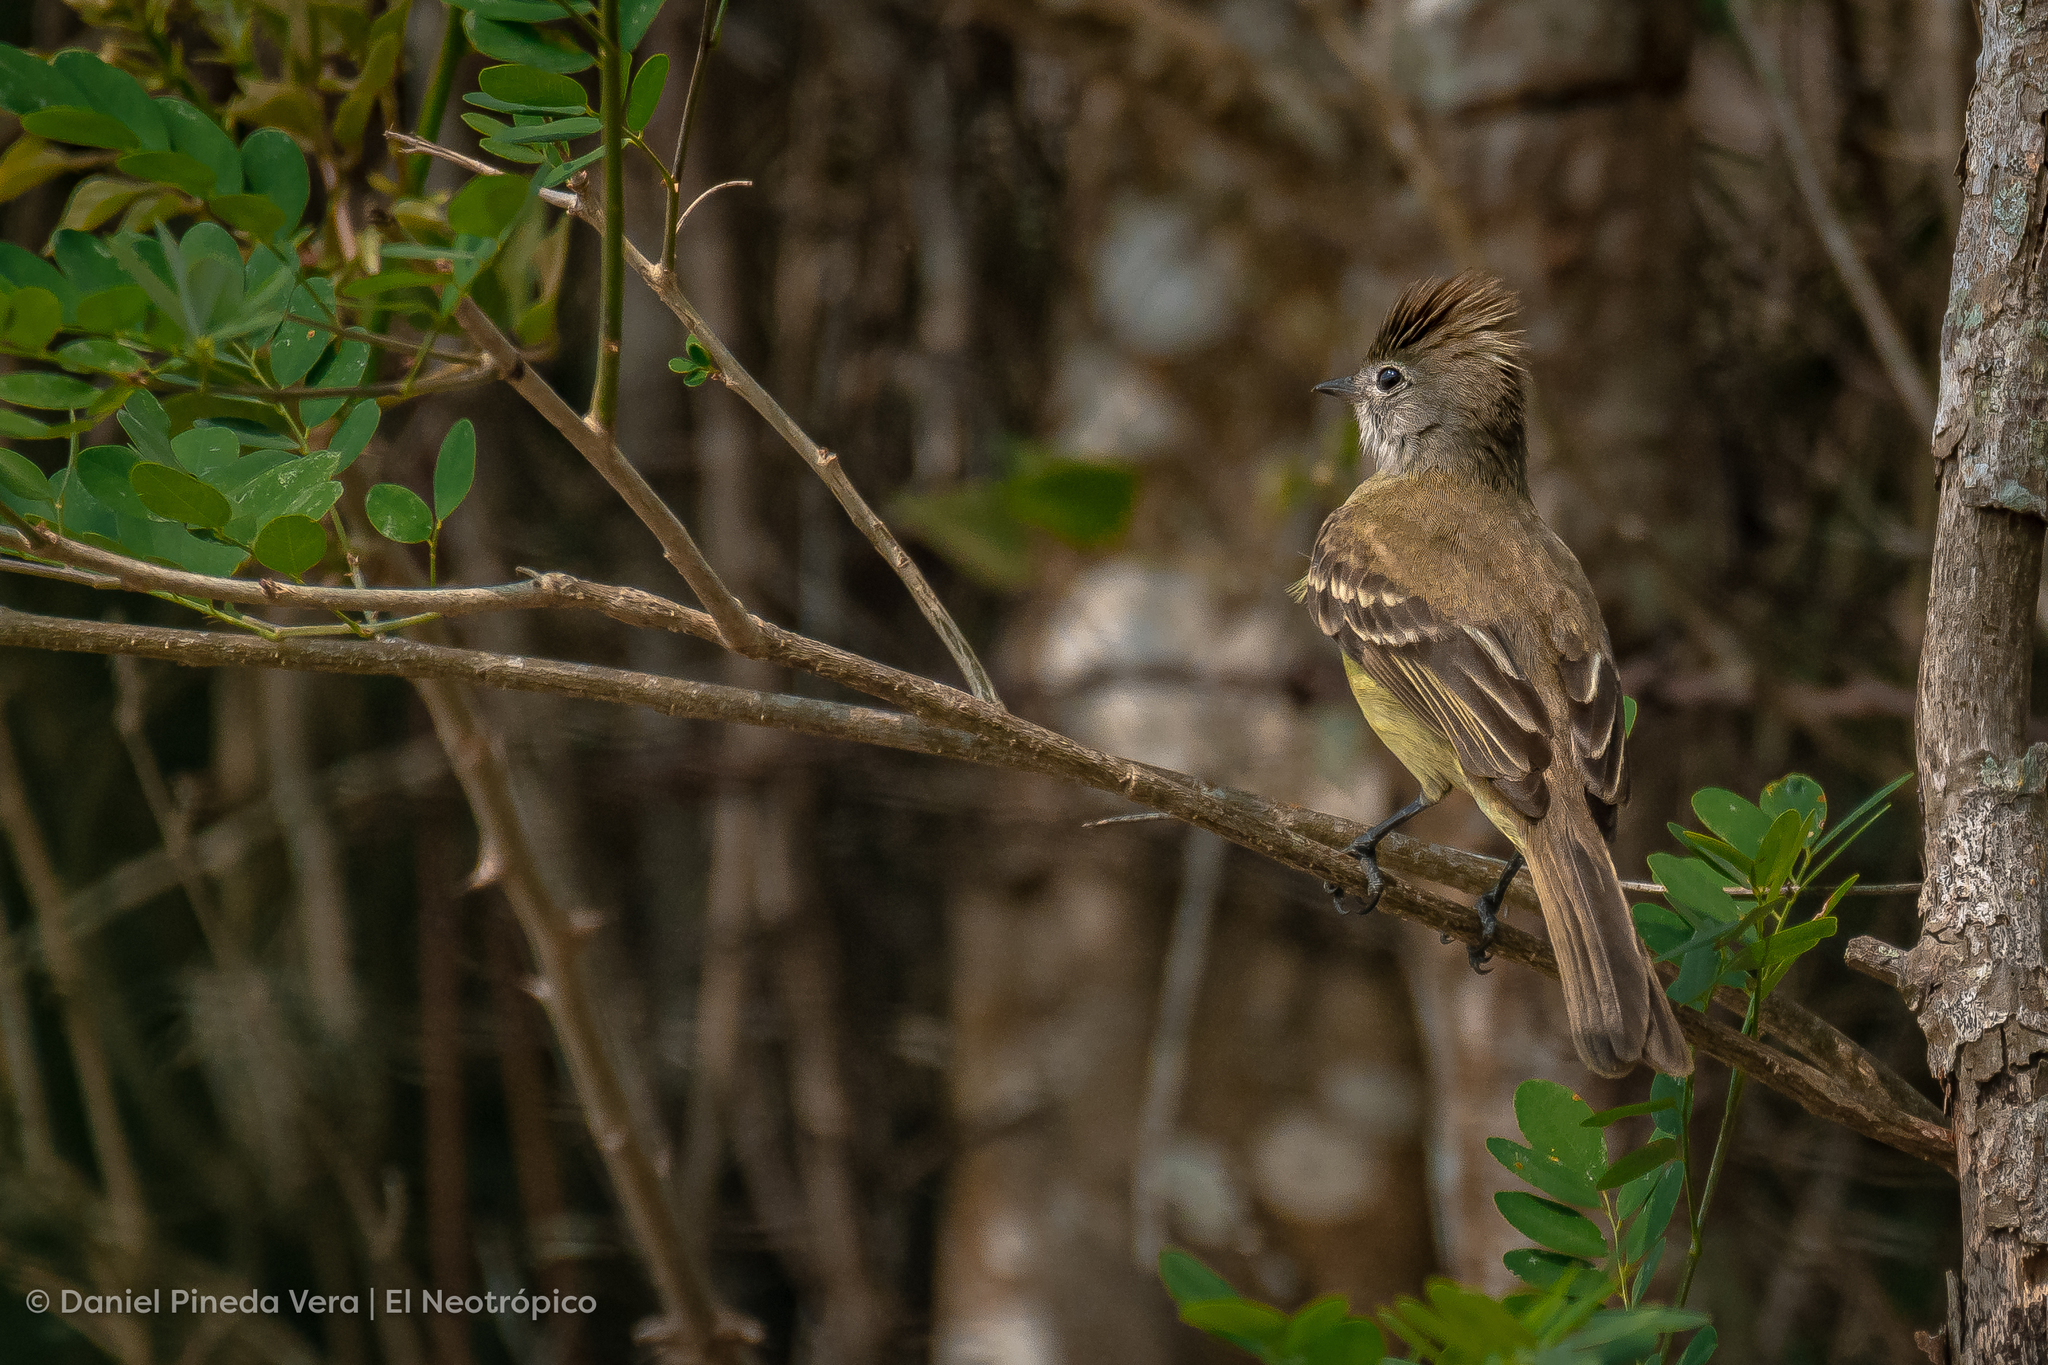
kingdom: Animalia
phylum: Chordata
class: Aves
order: Passeriformes
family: Tyrannidae
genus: Elaenia
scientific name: Elaenia flavogaster
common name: Yellow-bellied elaenia
